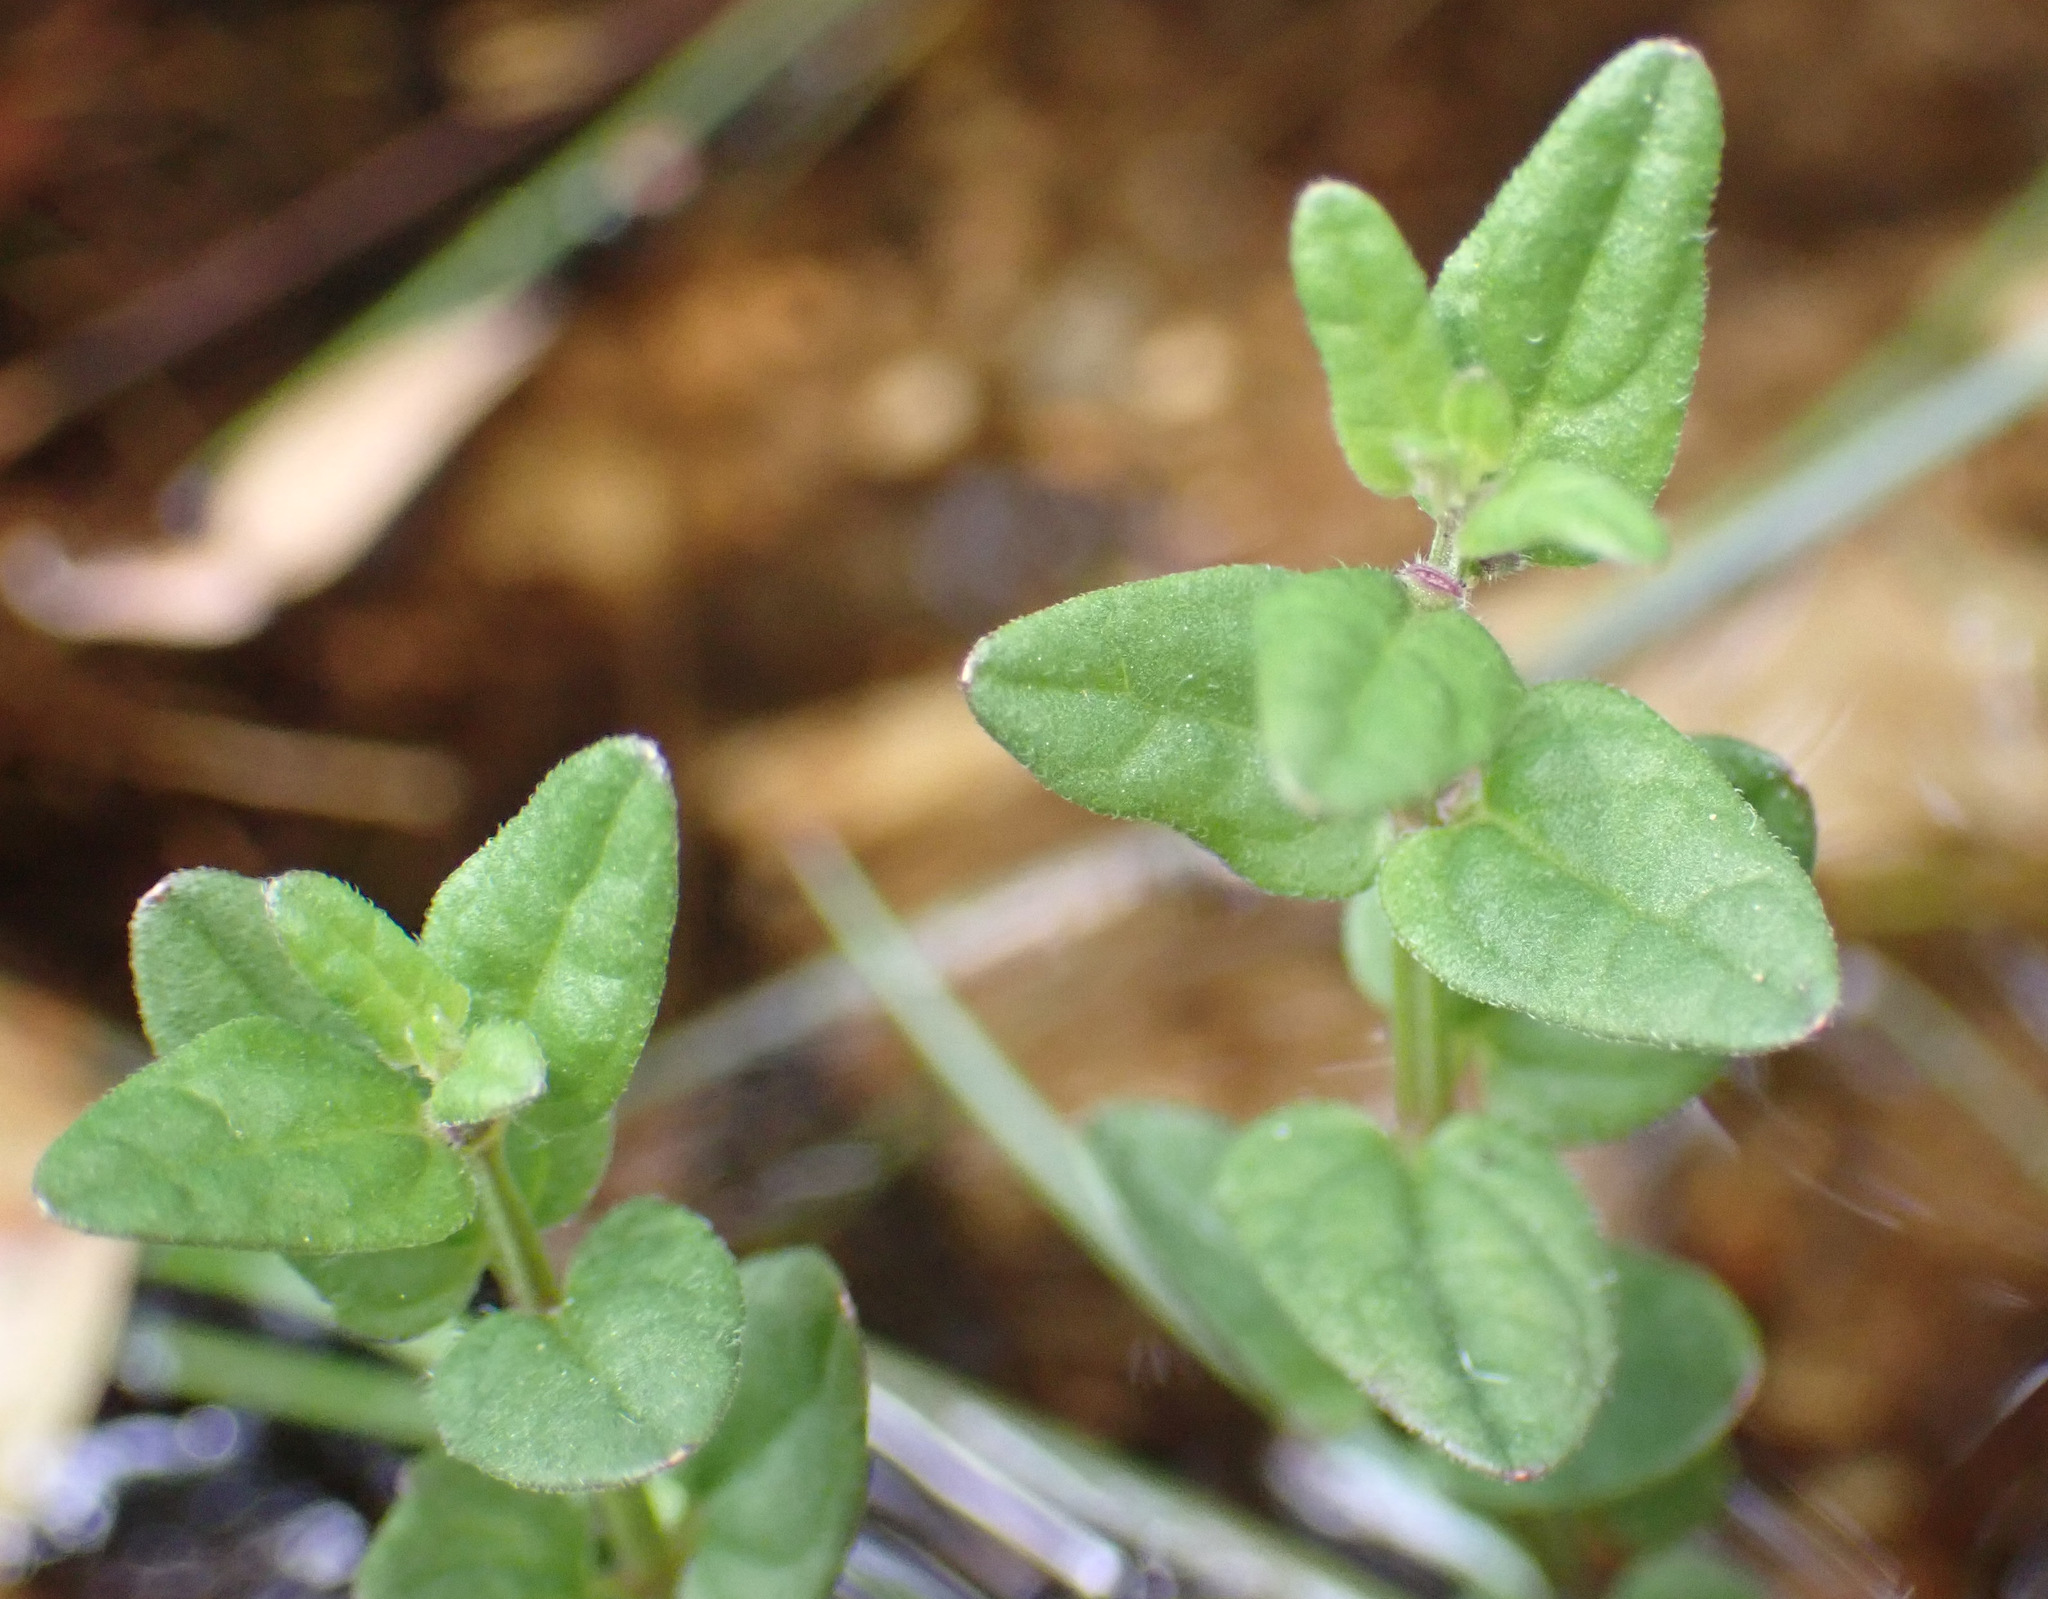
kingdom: Plantae
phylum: Tracheophyta
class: Magnoliopsida
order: Lamiales
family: Lamiaceae
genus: Scutellaria
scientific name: Scutellaria minor
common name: Lesser skullcap
